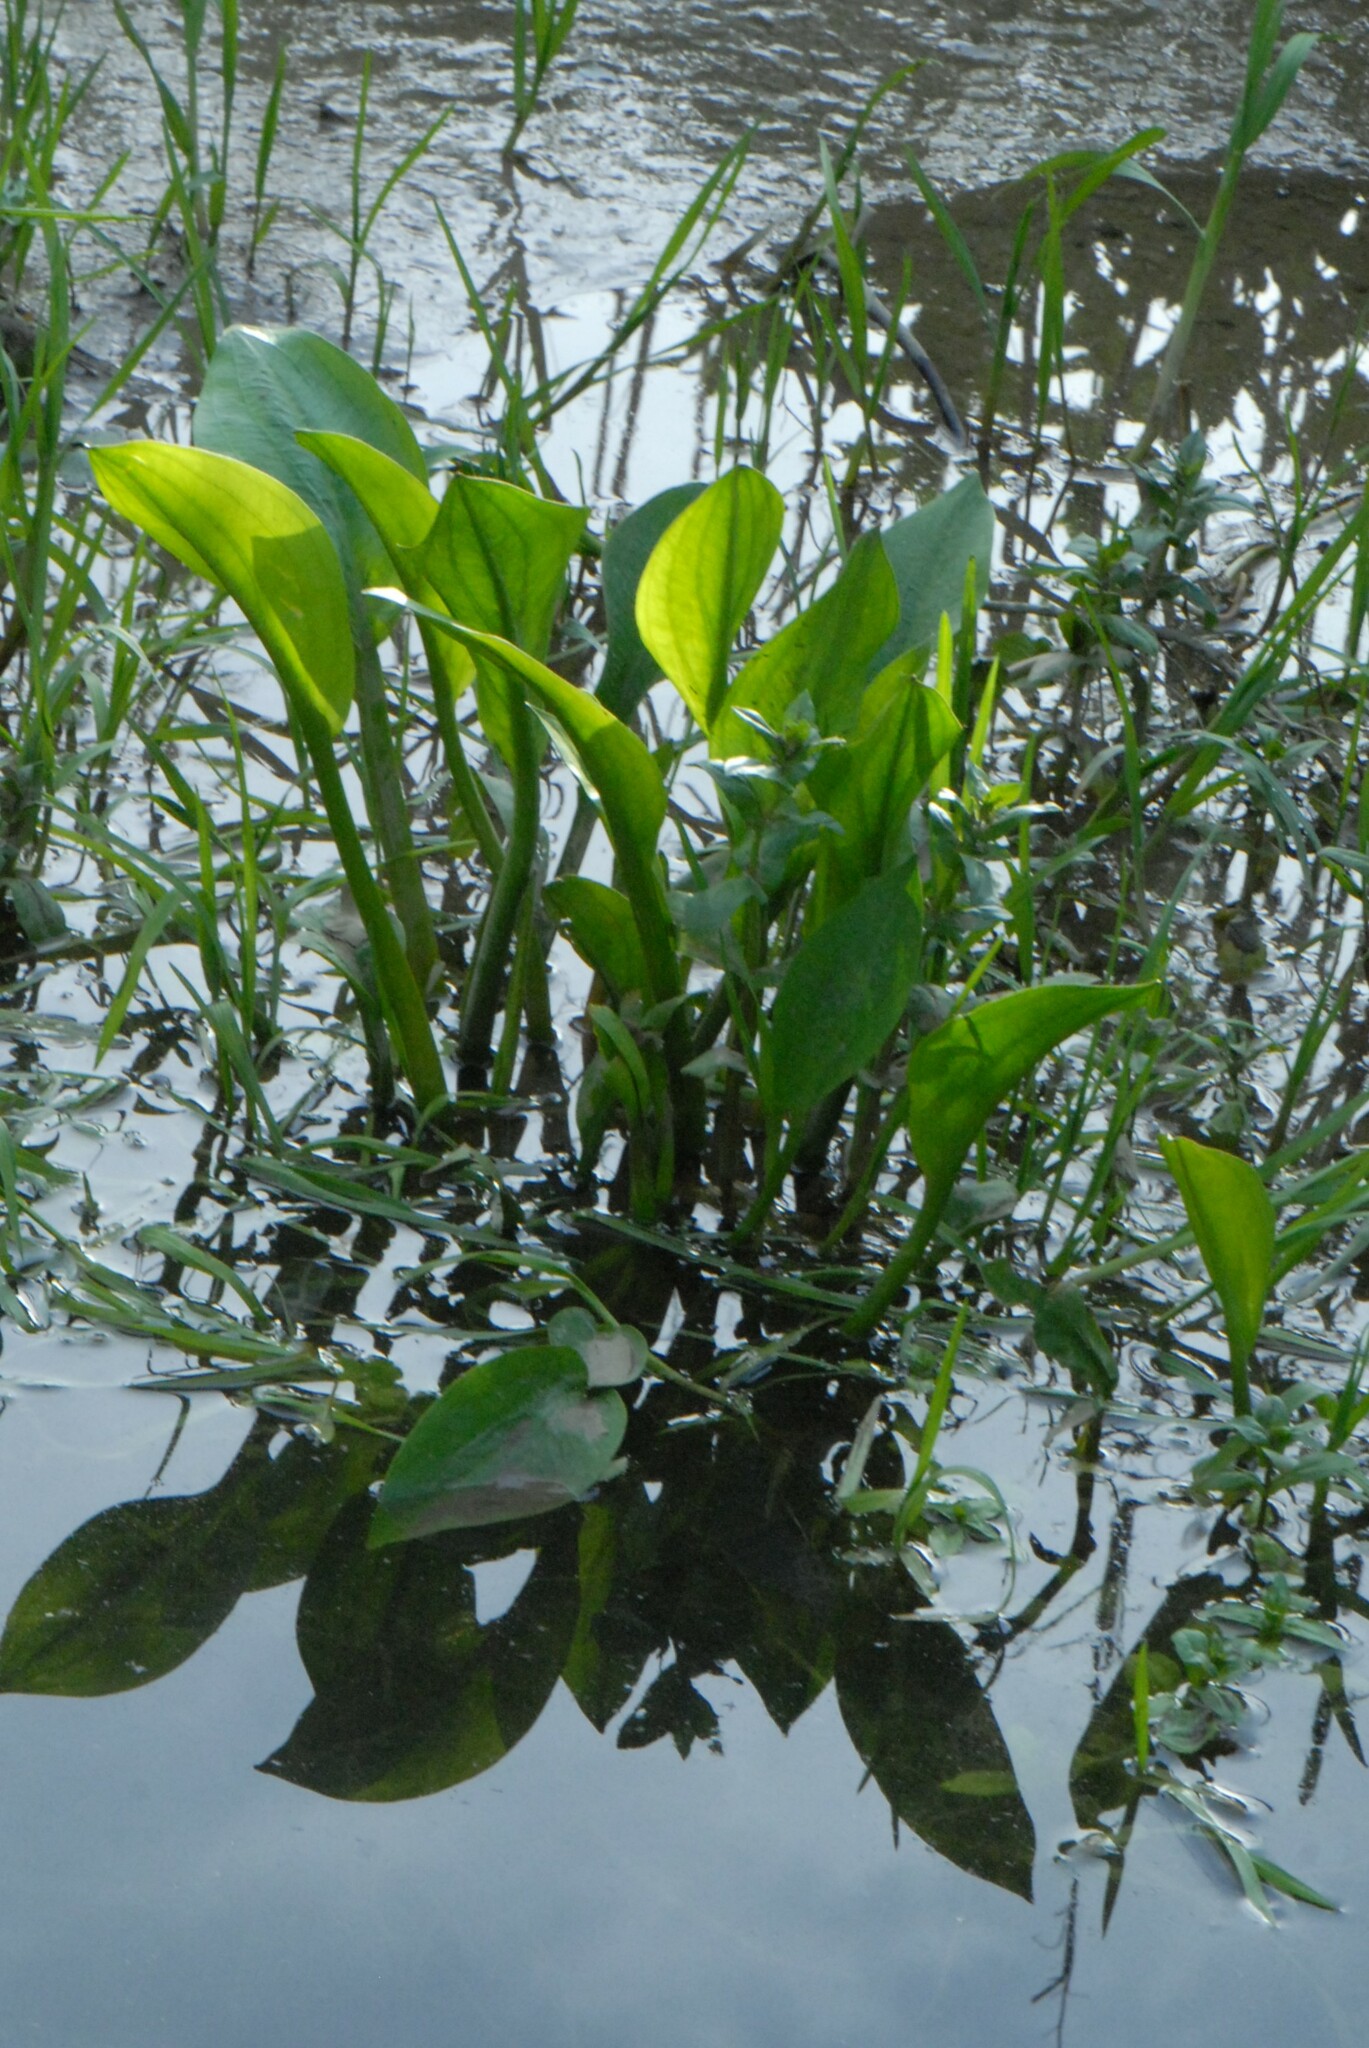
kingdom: Plantae
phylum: Tracheophyta
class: Liliopsida
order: Alismatales
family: Alismataceae
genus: Alisma
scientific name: Alisma plantago-aquatica
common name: Water-plantain
